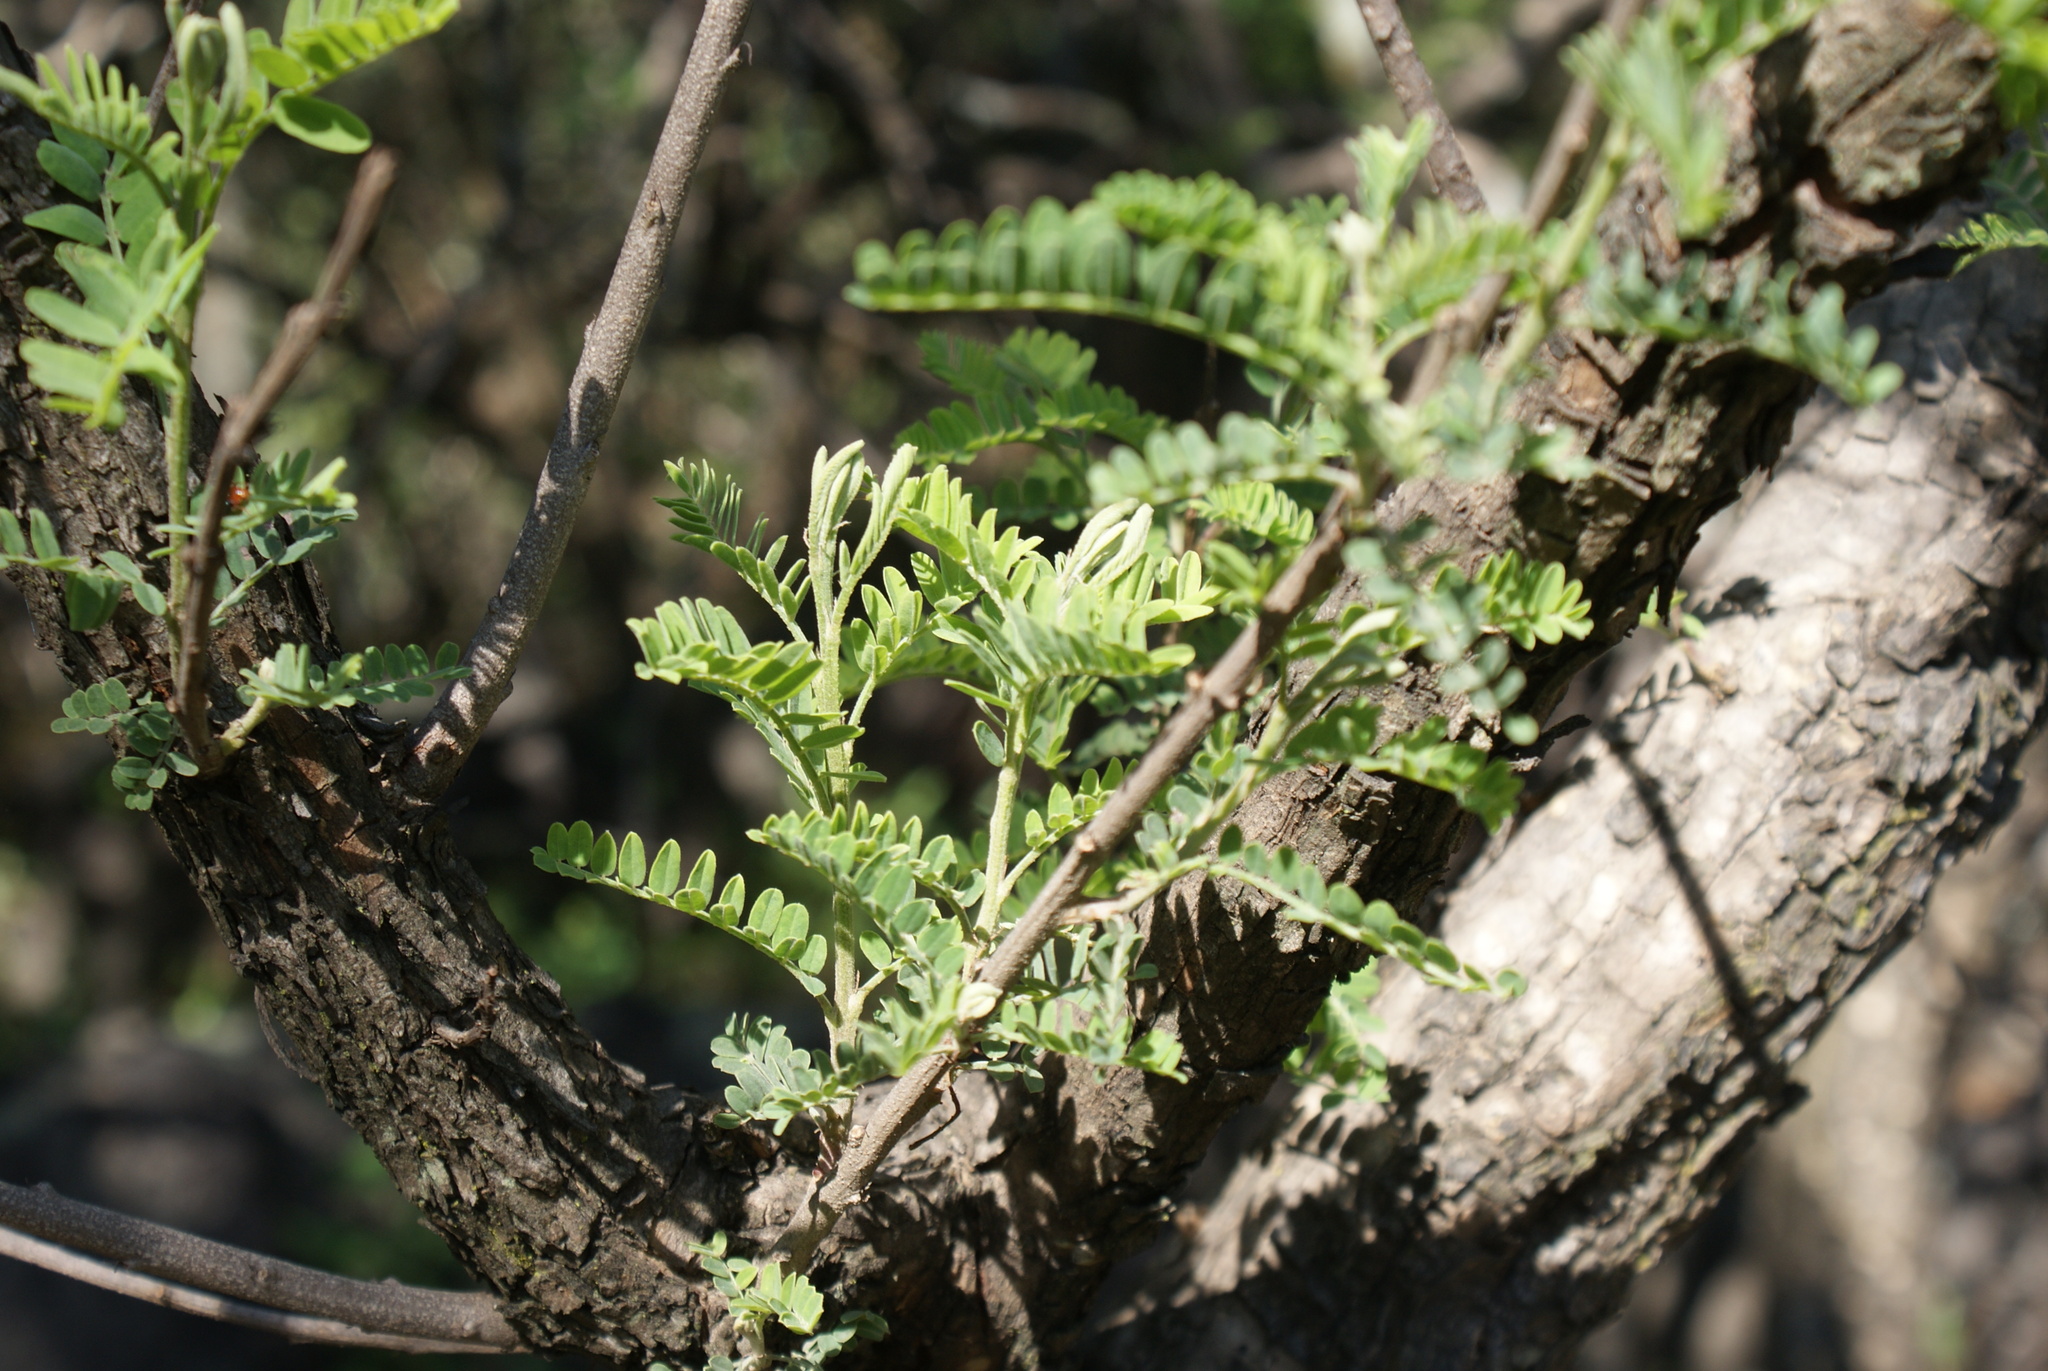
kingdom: Plantae
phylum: Tracheophyta
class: Magnoliopsida
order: Fabales
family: Fabaceae
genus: Eysenhardtia
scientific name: Eysenhardtia polystachya
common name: Kidneywood
